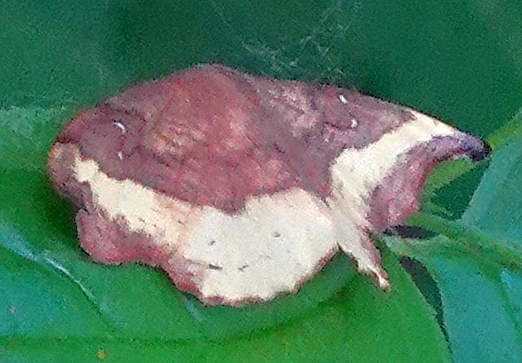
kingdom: Animalia
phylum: Arthropoda
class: Insecta
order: Lepidoptera
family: Drepanidae
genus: Oreta
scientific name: Oreta rosea
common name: Rose hooktip
